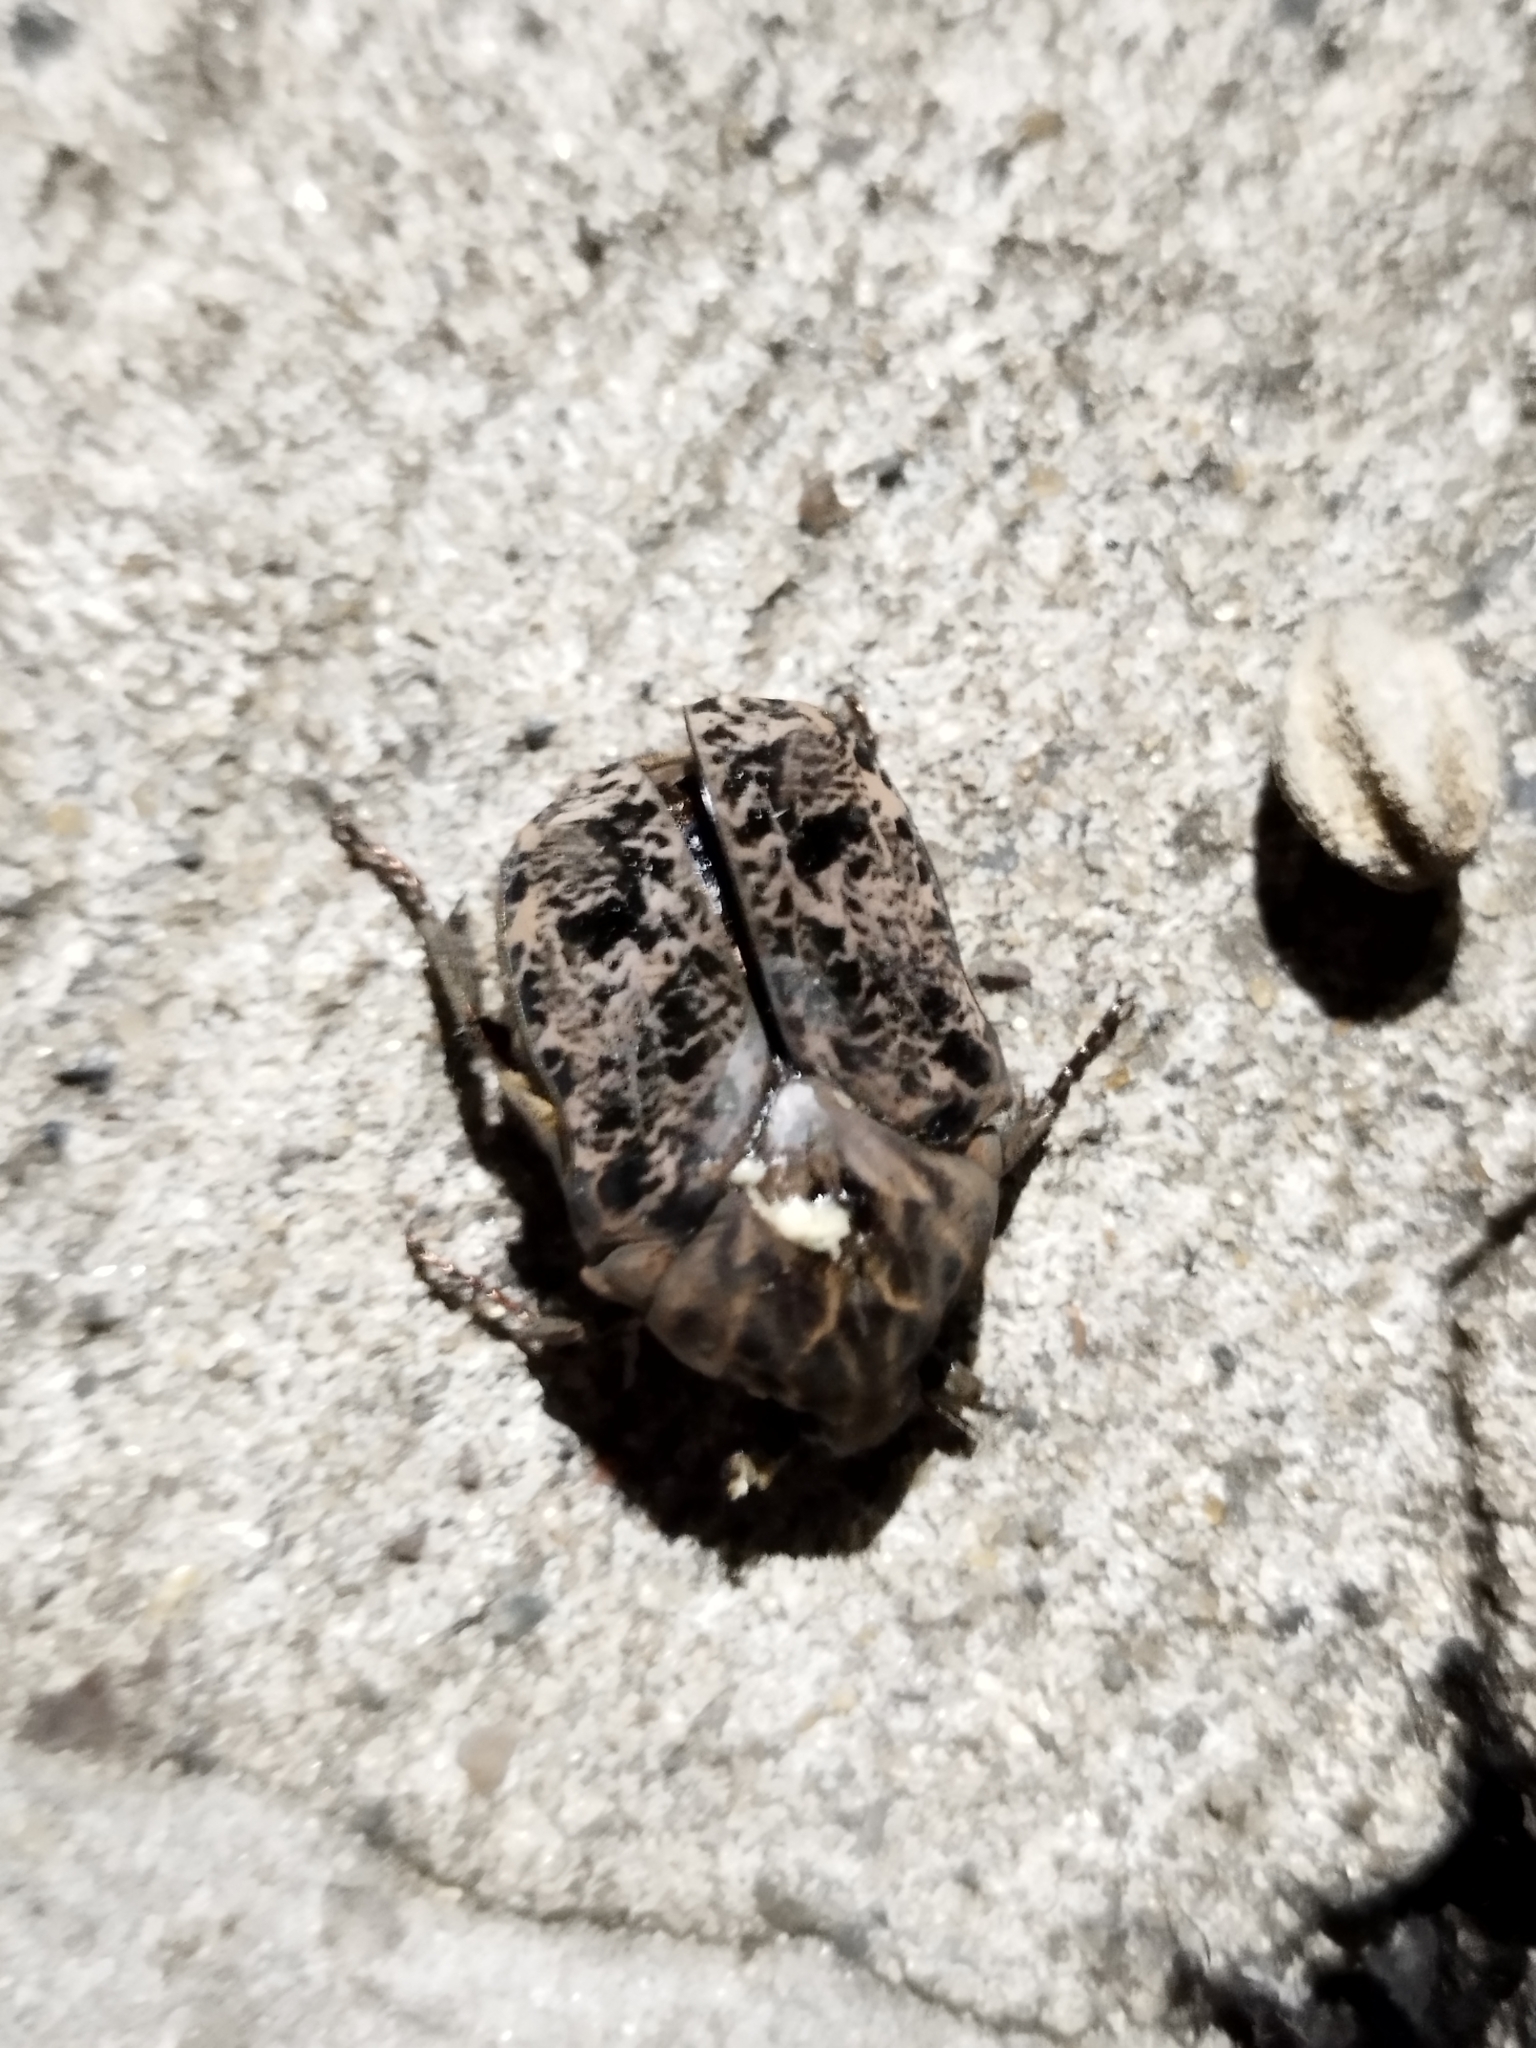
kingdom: Animalia
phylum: Arthropoda
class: Insecta
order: Coleoptera
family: Scarabaeidae
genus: Gymnetis
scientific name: Gymnetis chalcipes
